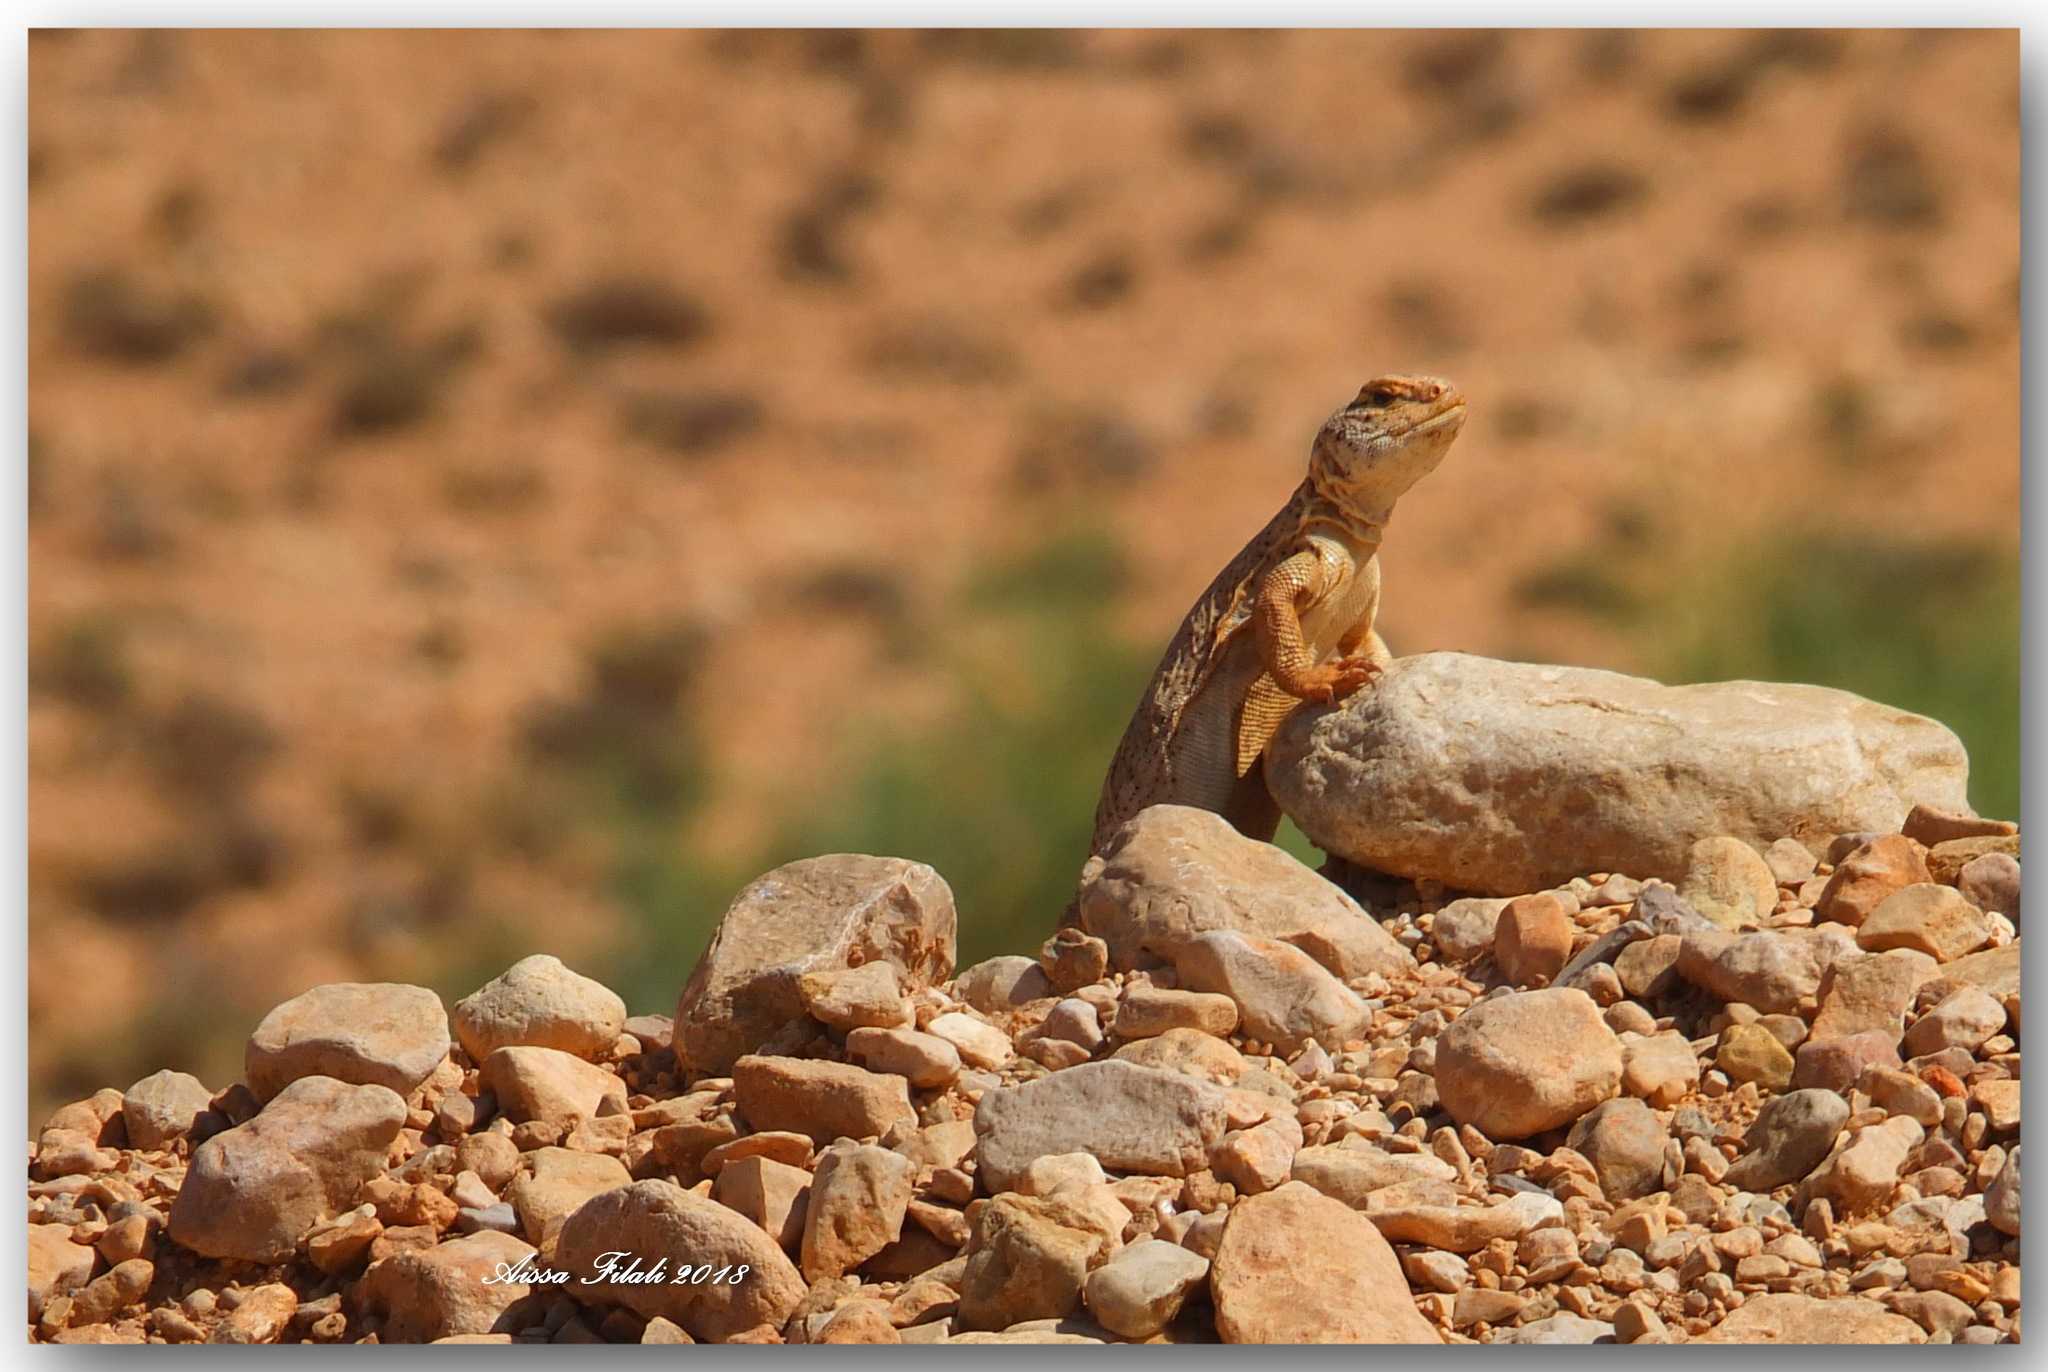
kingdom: Animalia
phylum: Chordata
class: Squamata
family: Agamidae
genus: Uromastyx
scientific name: Uromastyx acanthinura
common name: Dabba mastigure
